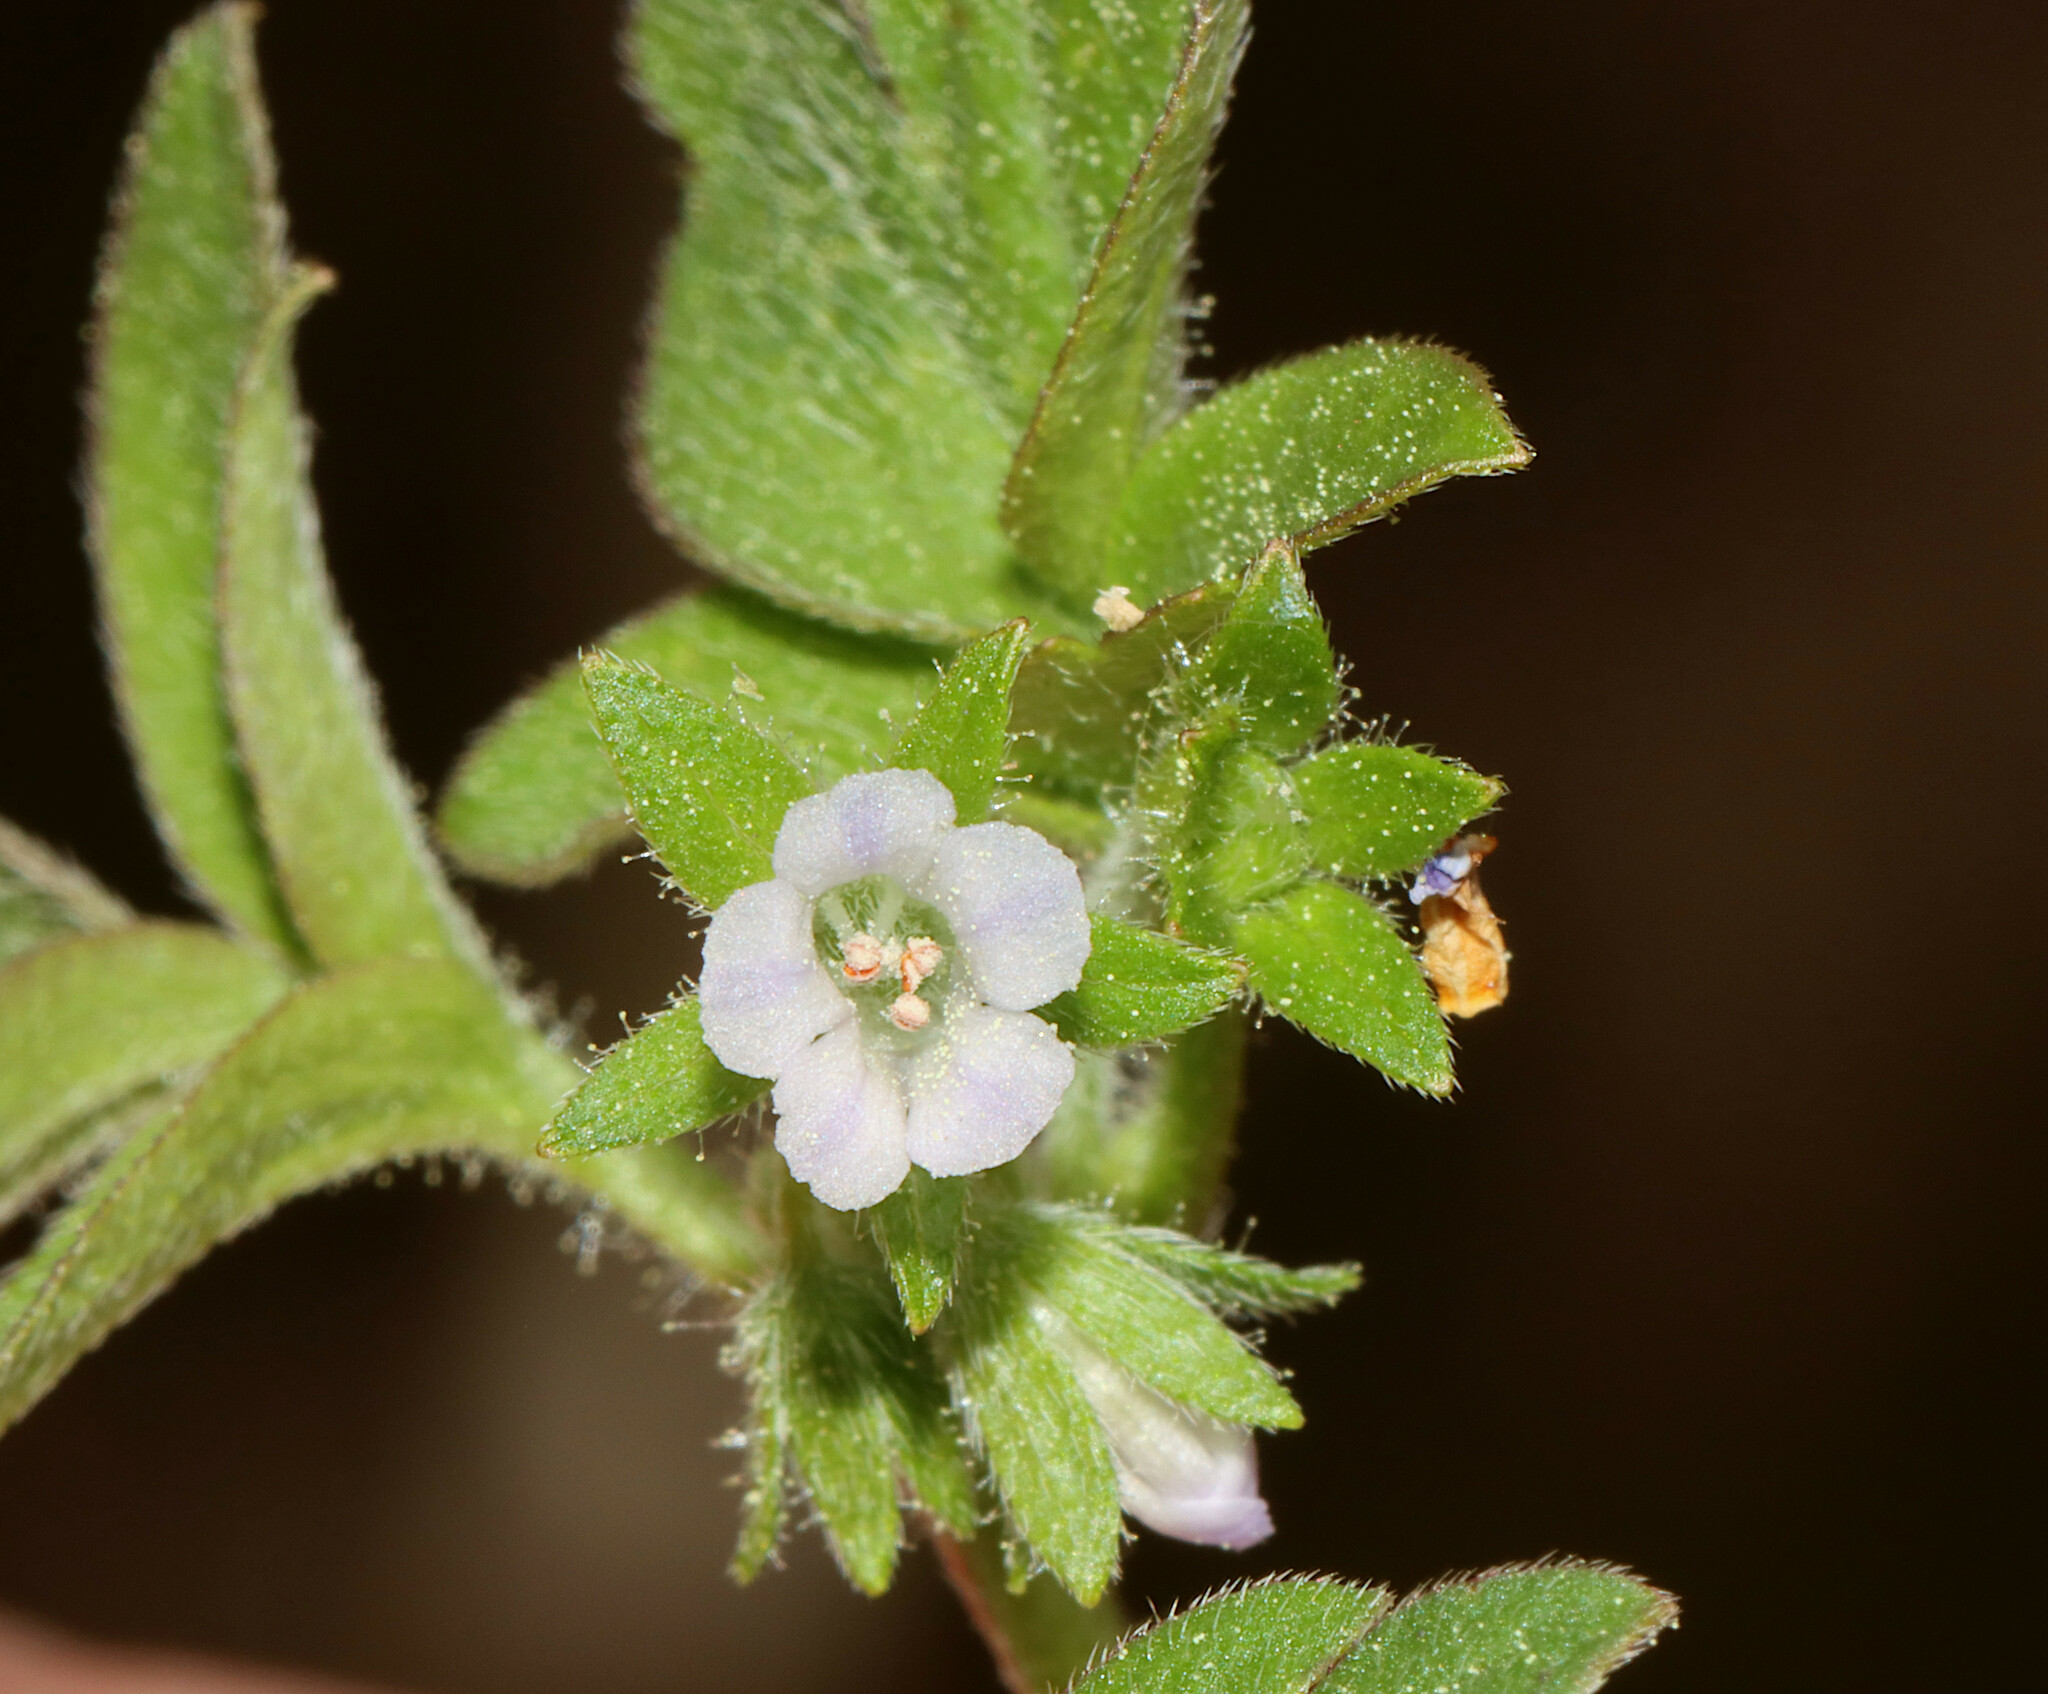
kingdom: Plantae
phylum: Tracheophyta
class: Magnoliopsida
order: Boraginales
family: Hydrophyllaceae
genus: Phacelia
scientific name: Phacelia ranunculacea
